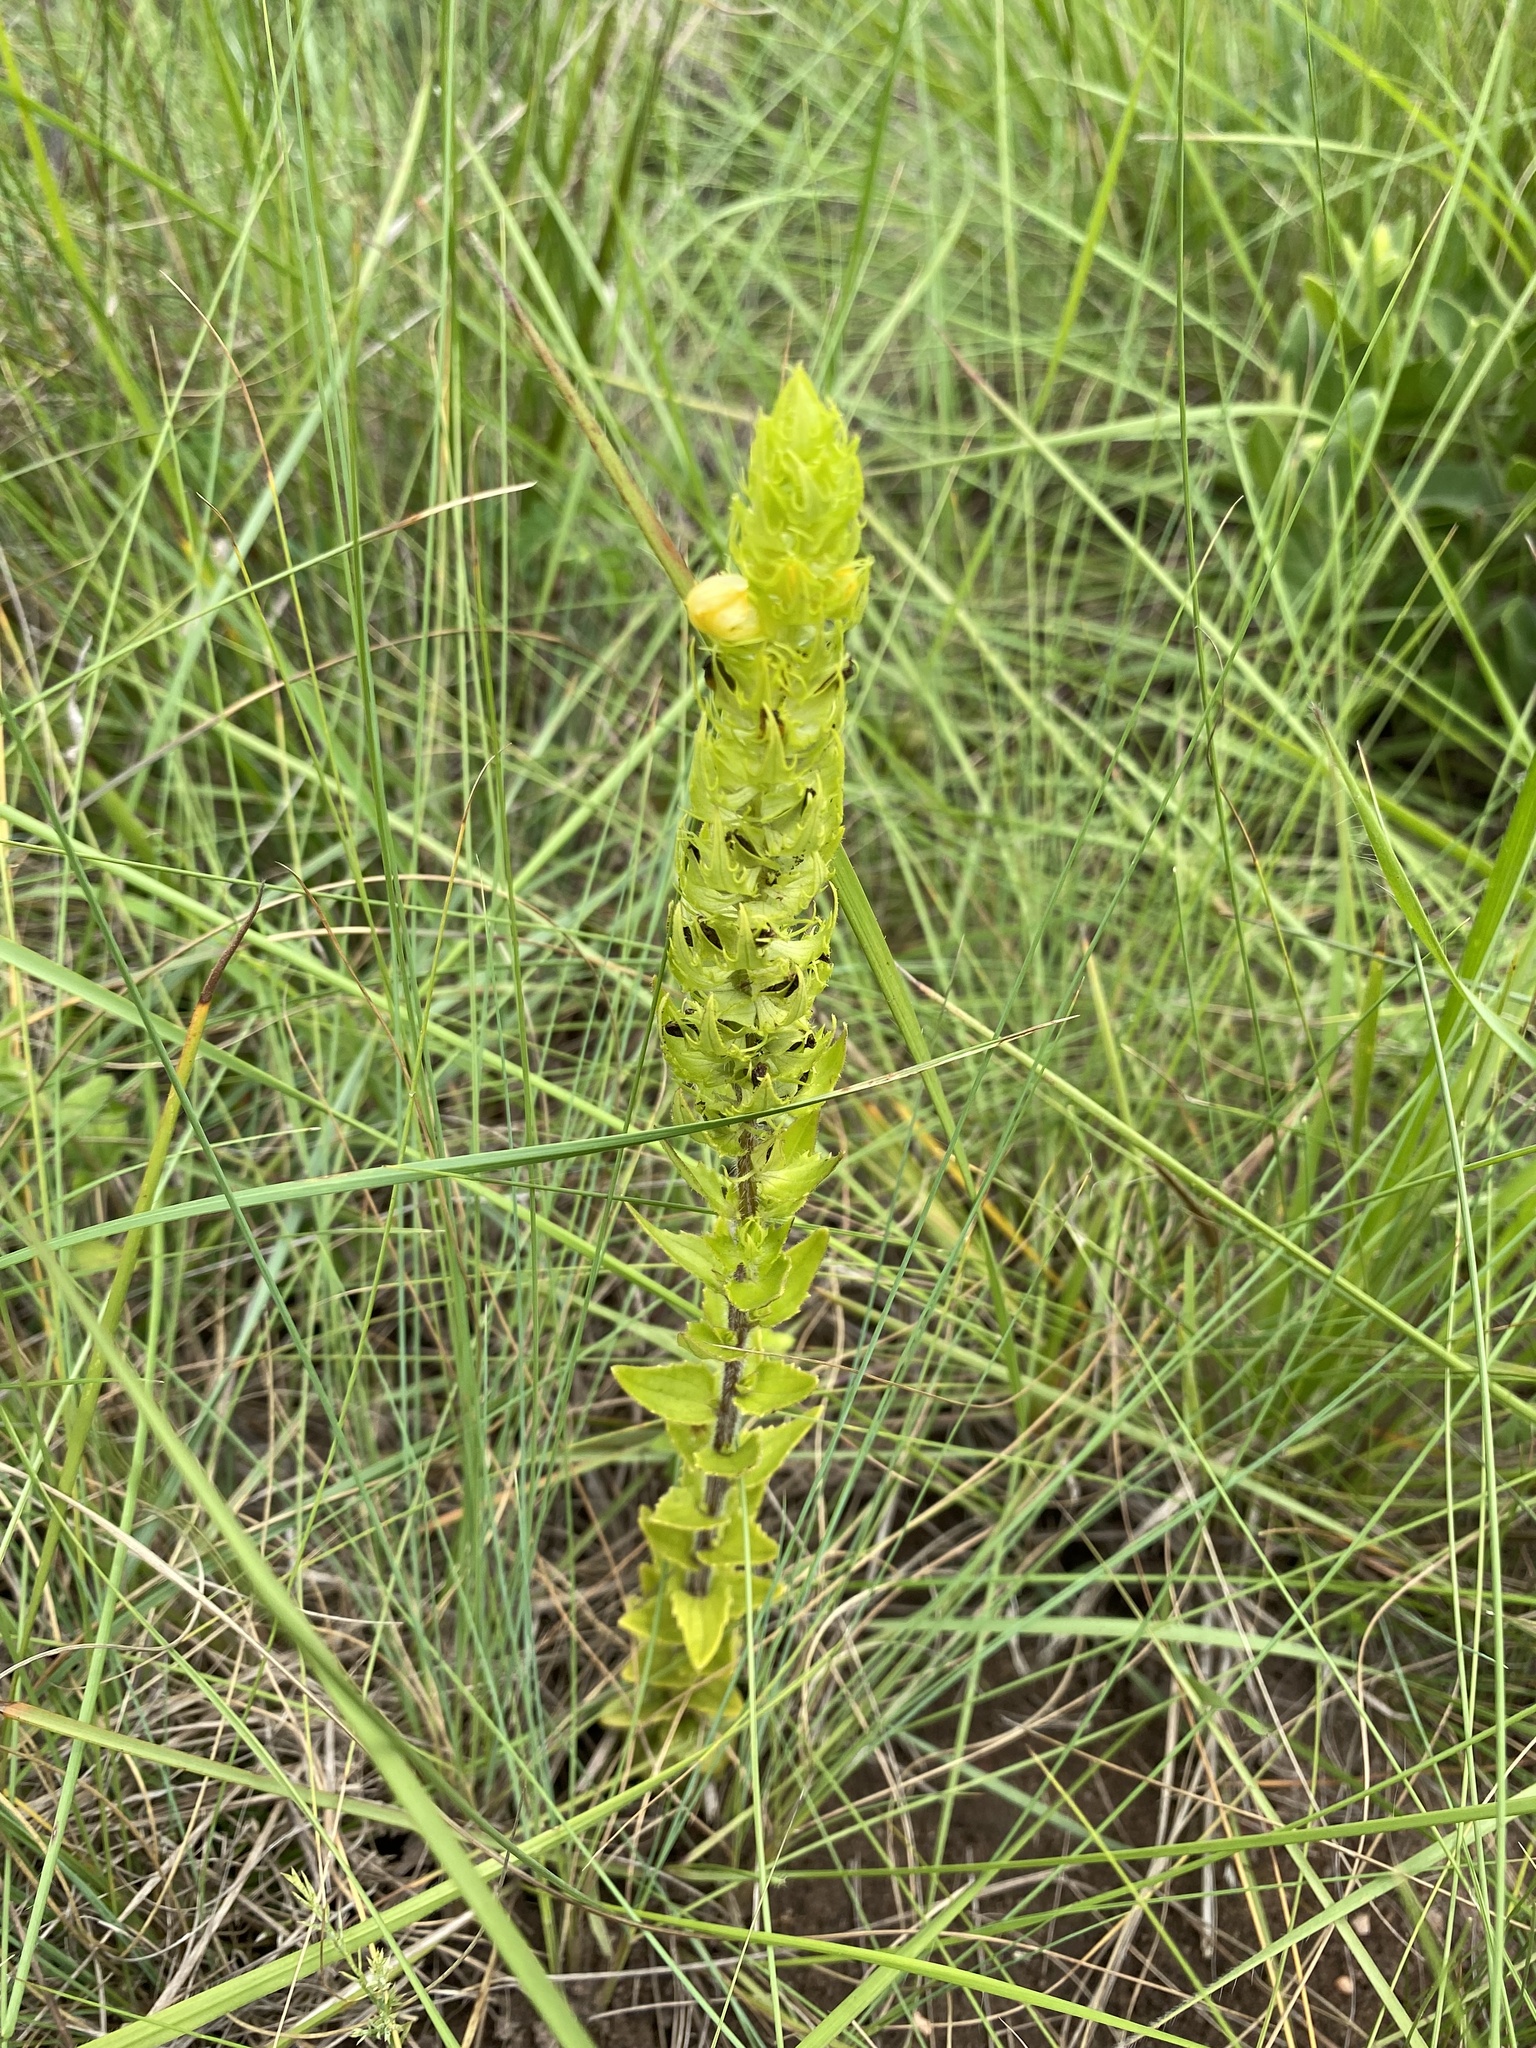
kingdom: Plantae
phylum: Tracheophyta
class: Magnoliopsida
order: Lamiales
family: Orobanchaceae
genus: Alectra
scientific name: Alectra sessiliflora
